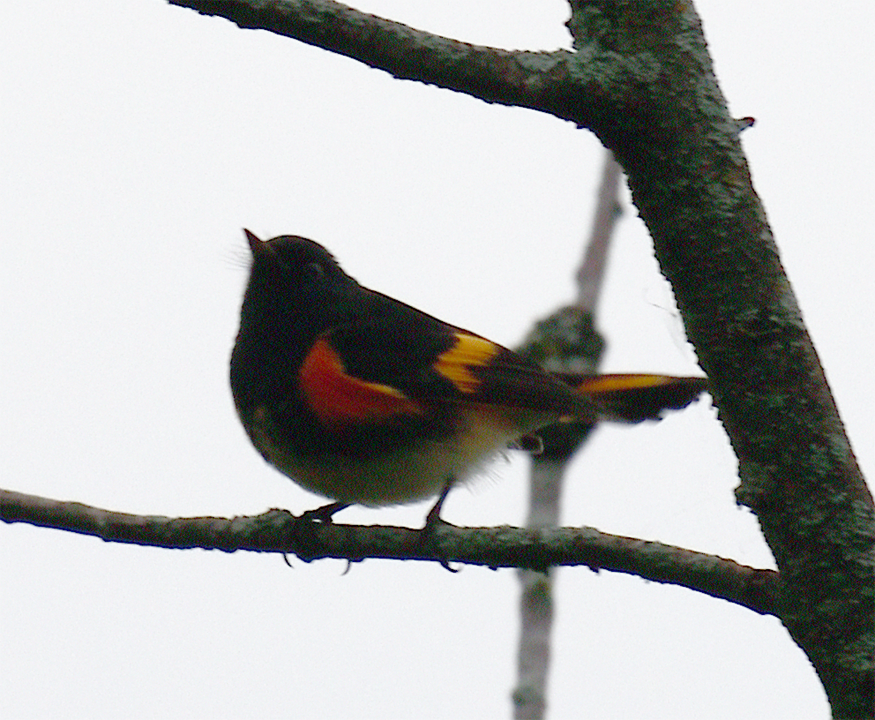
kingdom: Animalia
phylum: Chordata
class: Aves
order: Passeriformes
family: Parulidae
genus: Setophaga
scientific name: Setophaga ruticilla
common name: American redstart
